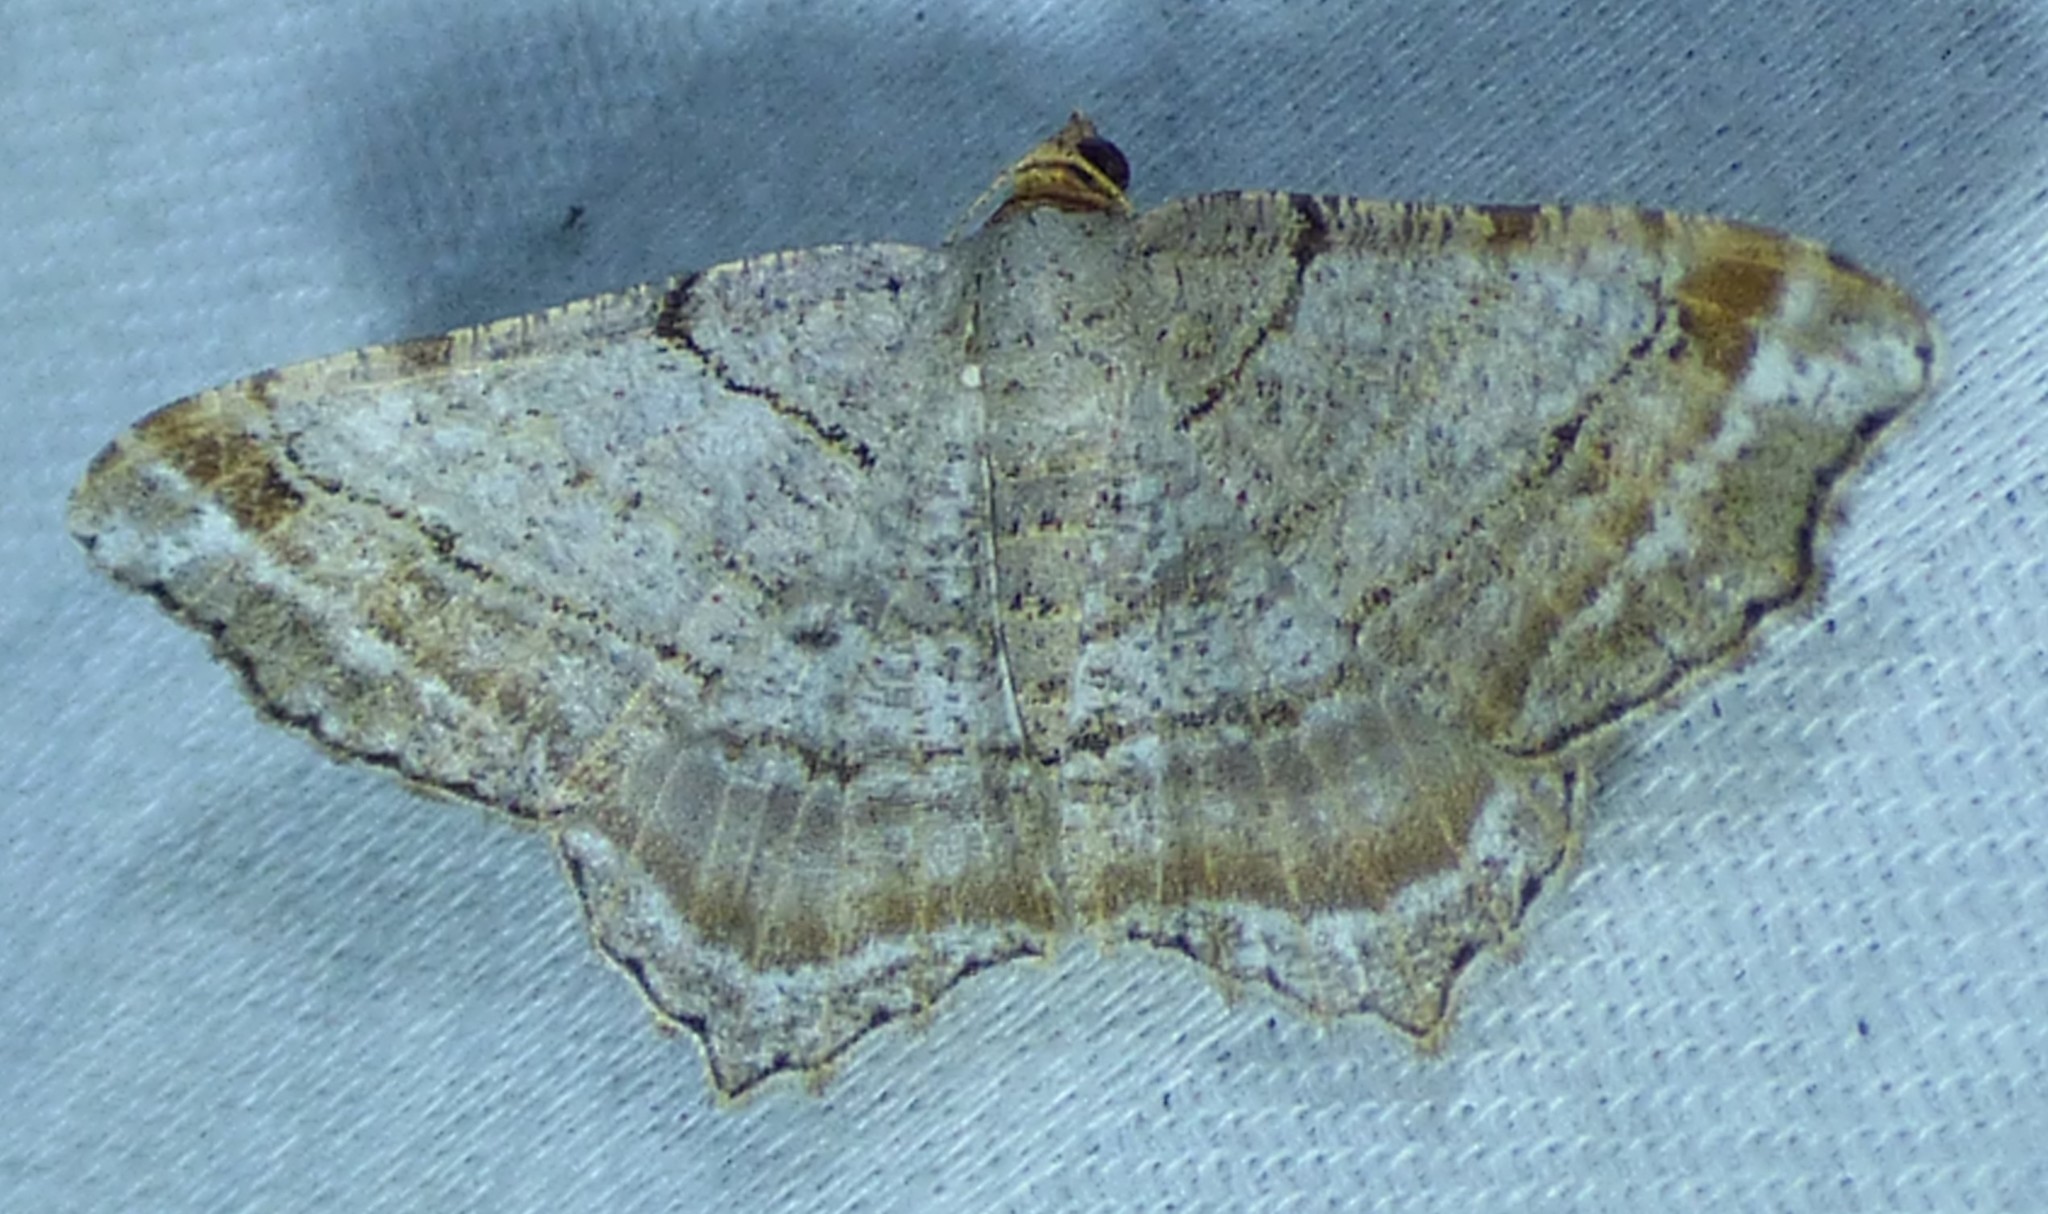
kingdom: Animalia
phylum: Arthropoda
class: Insecta
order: Lepidoptera
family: Geometridae
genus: Macaria
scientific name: Macaria multilineata
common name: Many-lined angle
